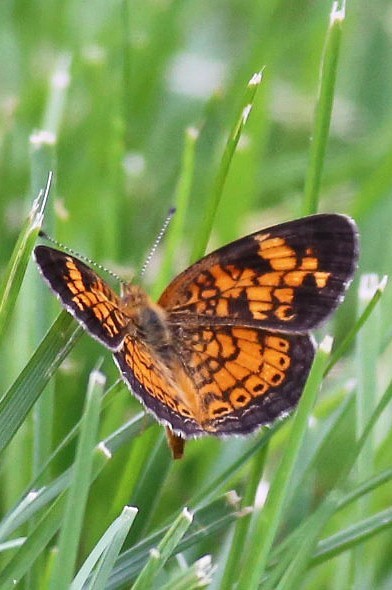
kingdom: Animalia
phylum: Arthropoda
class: Insecta
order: Lepidoptera
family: Nymphalidae
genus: Phyciodes
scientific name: Phyciodes tharos
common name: Pearl crescent
